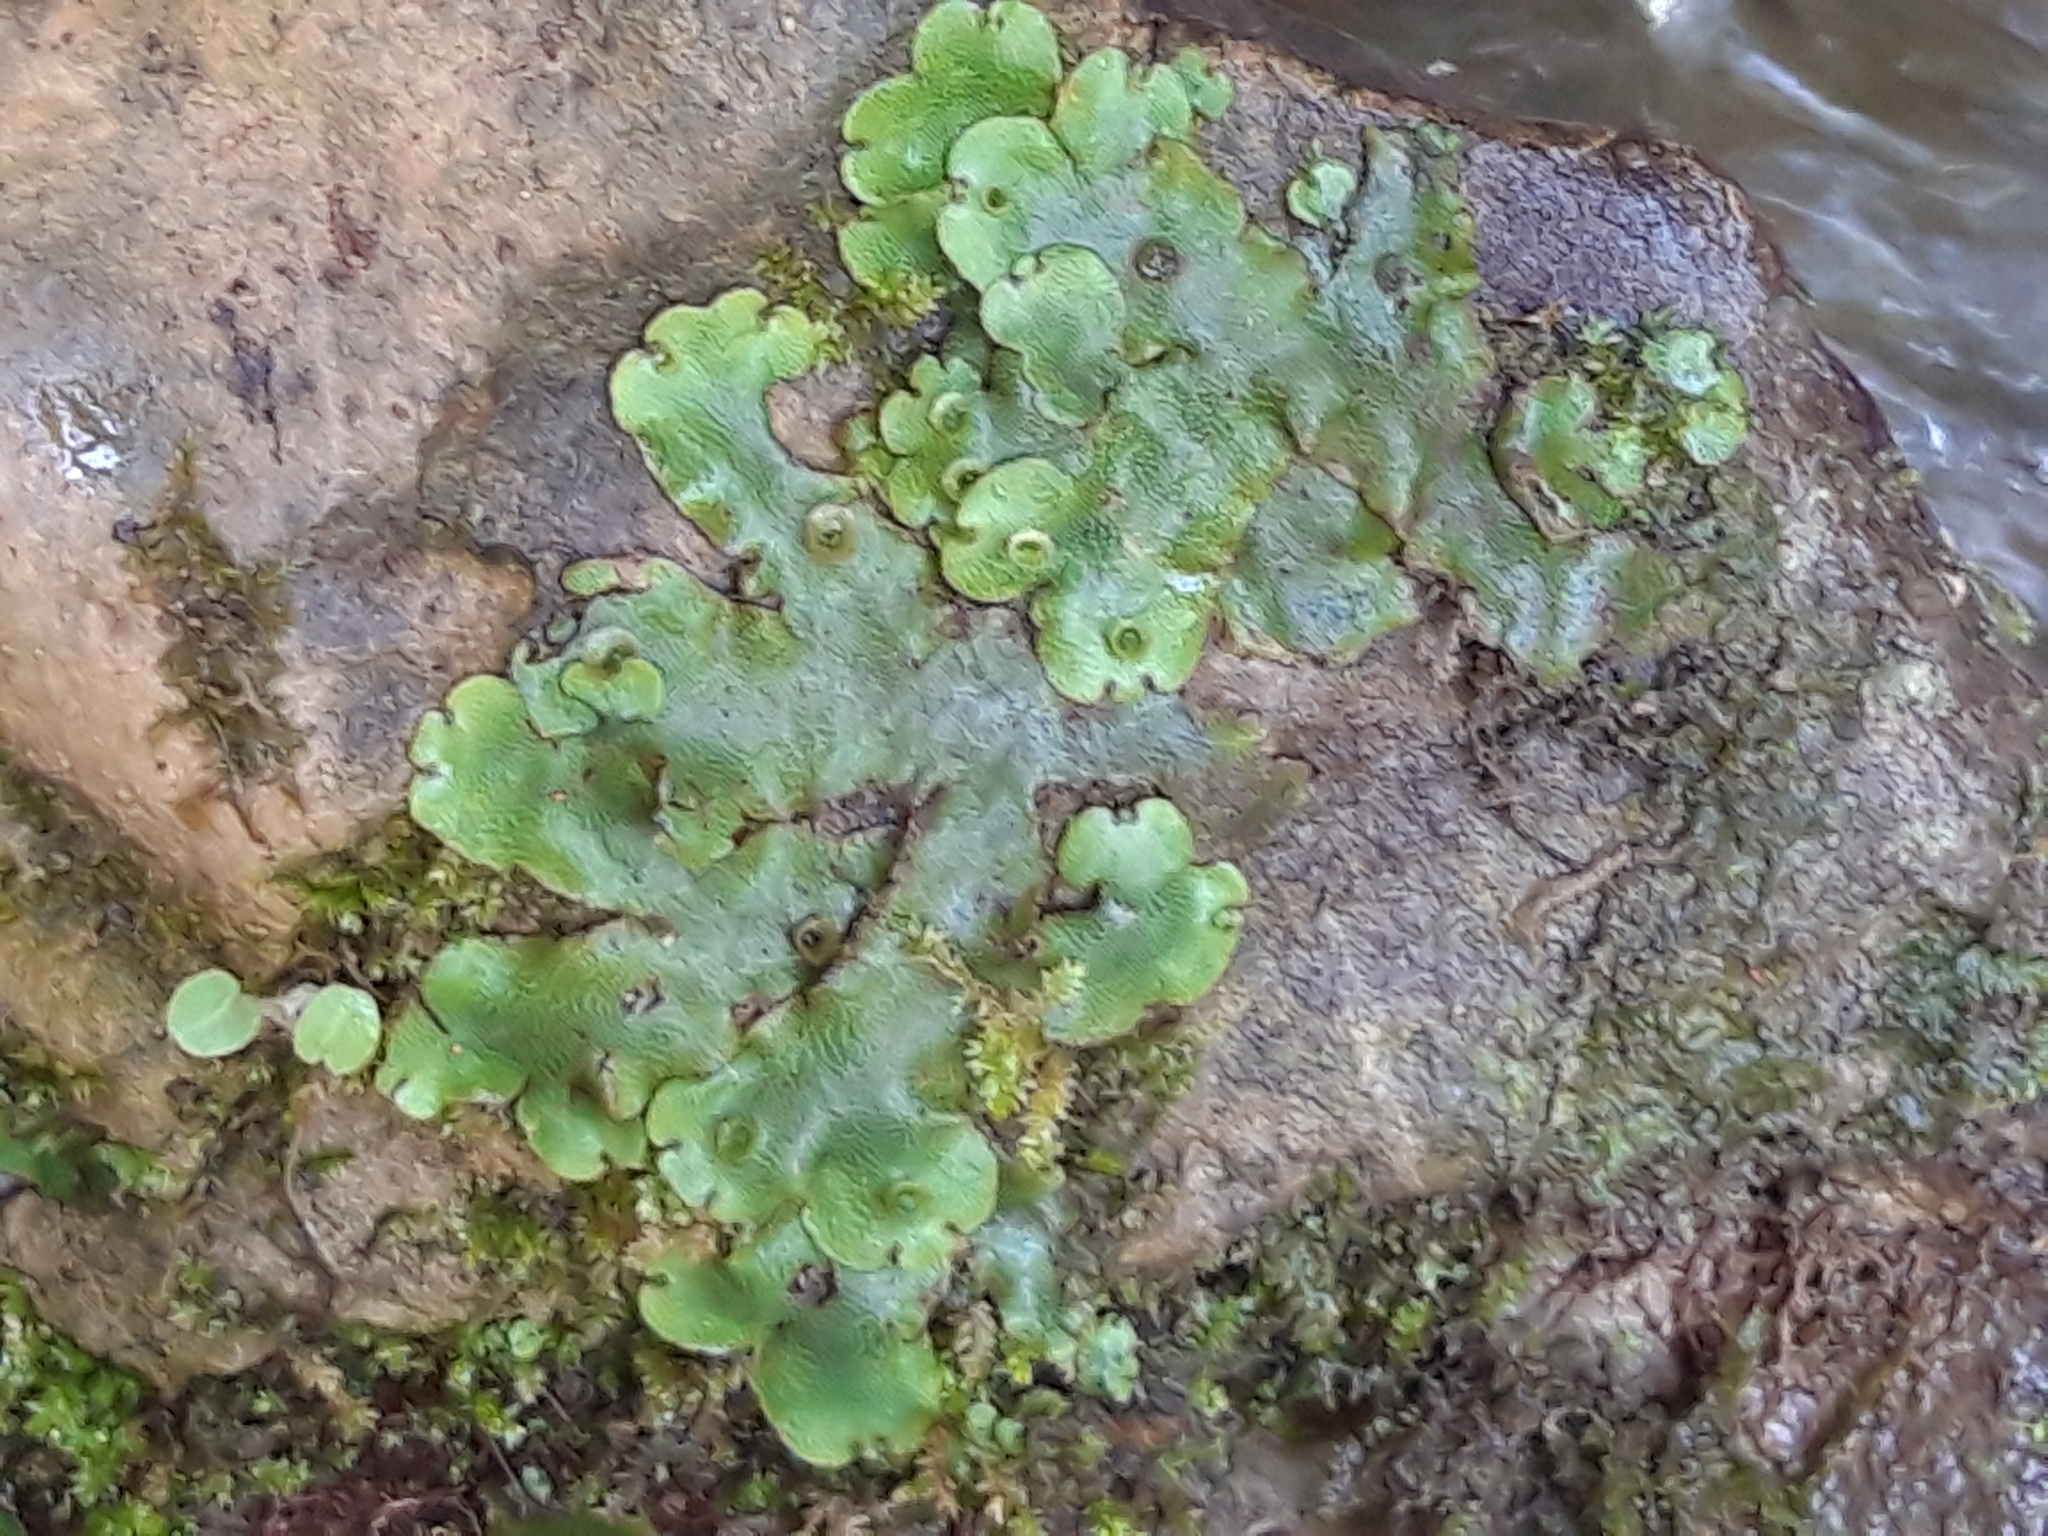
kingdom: Plantae
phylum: Marchantiophyta
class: Marchantiopsida
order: Marchantiales
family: Marchantiaceae
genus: Marchantia
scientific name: Marchantia paleacea
